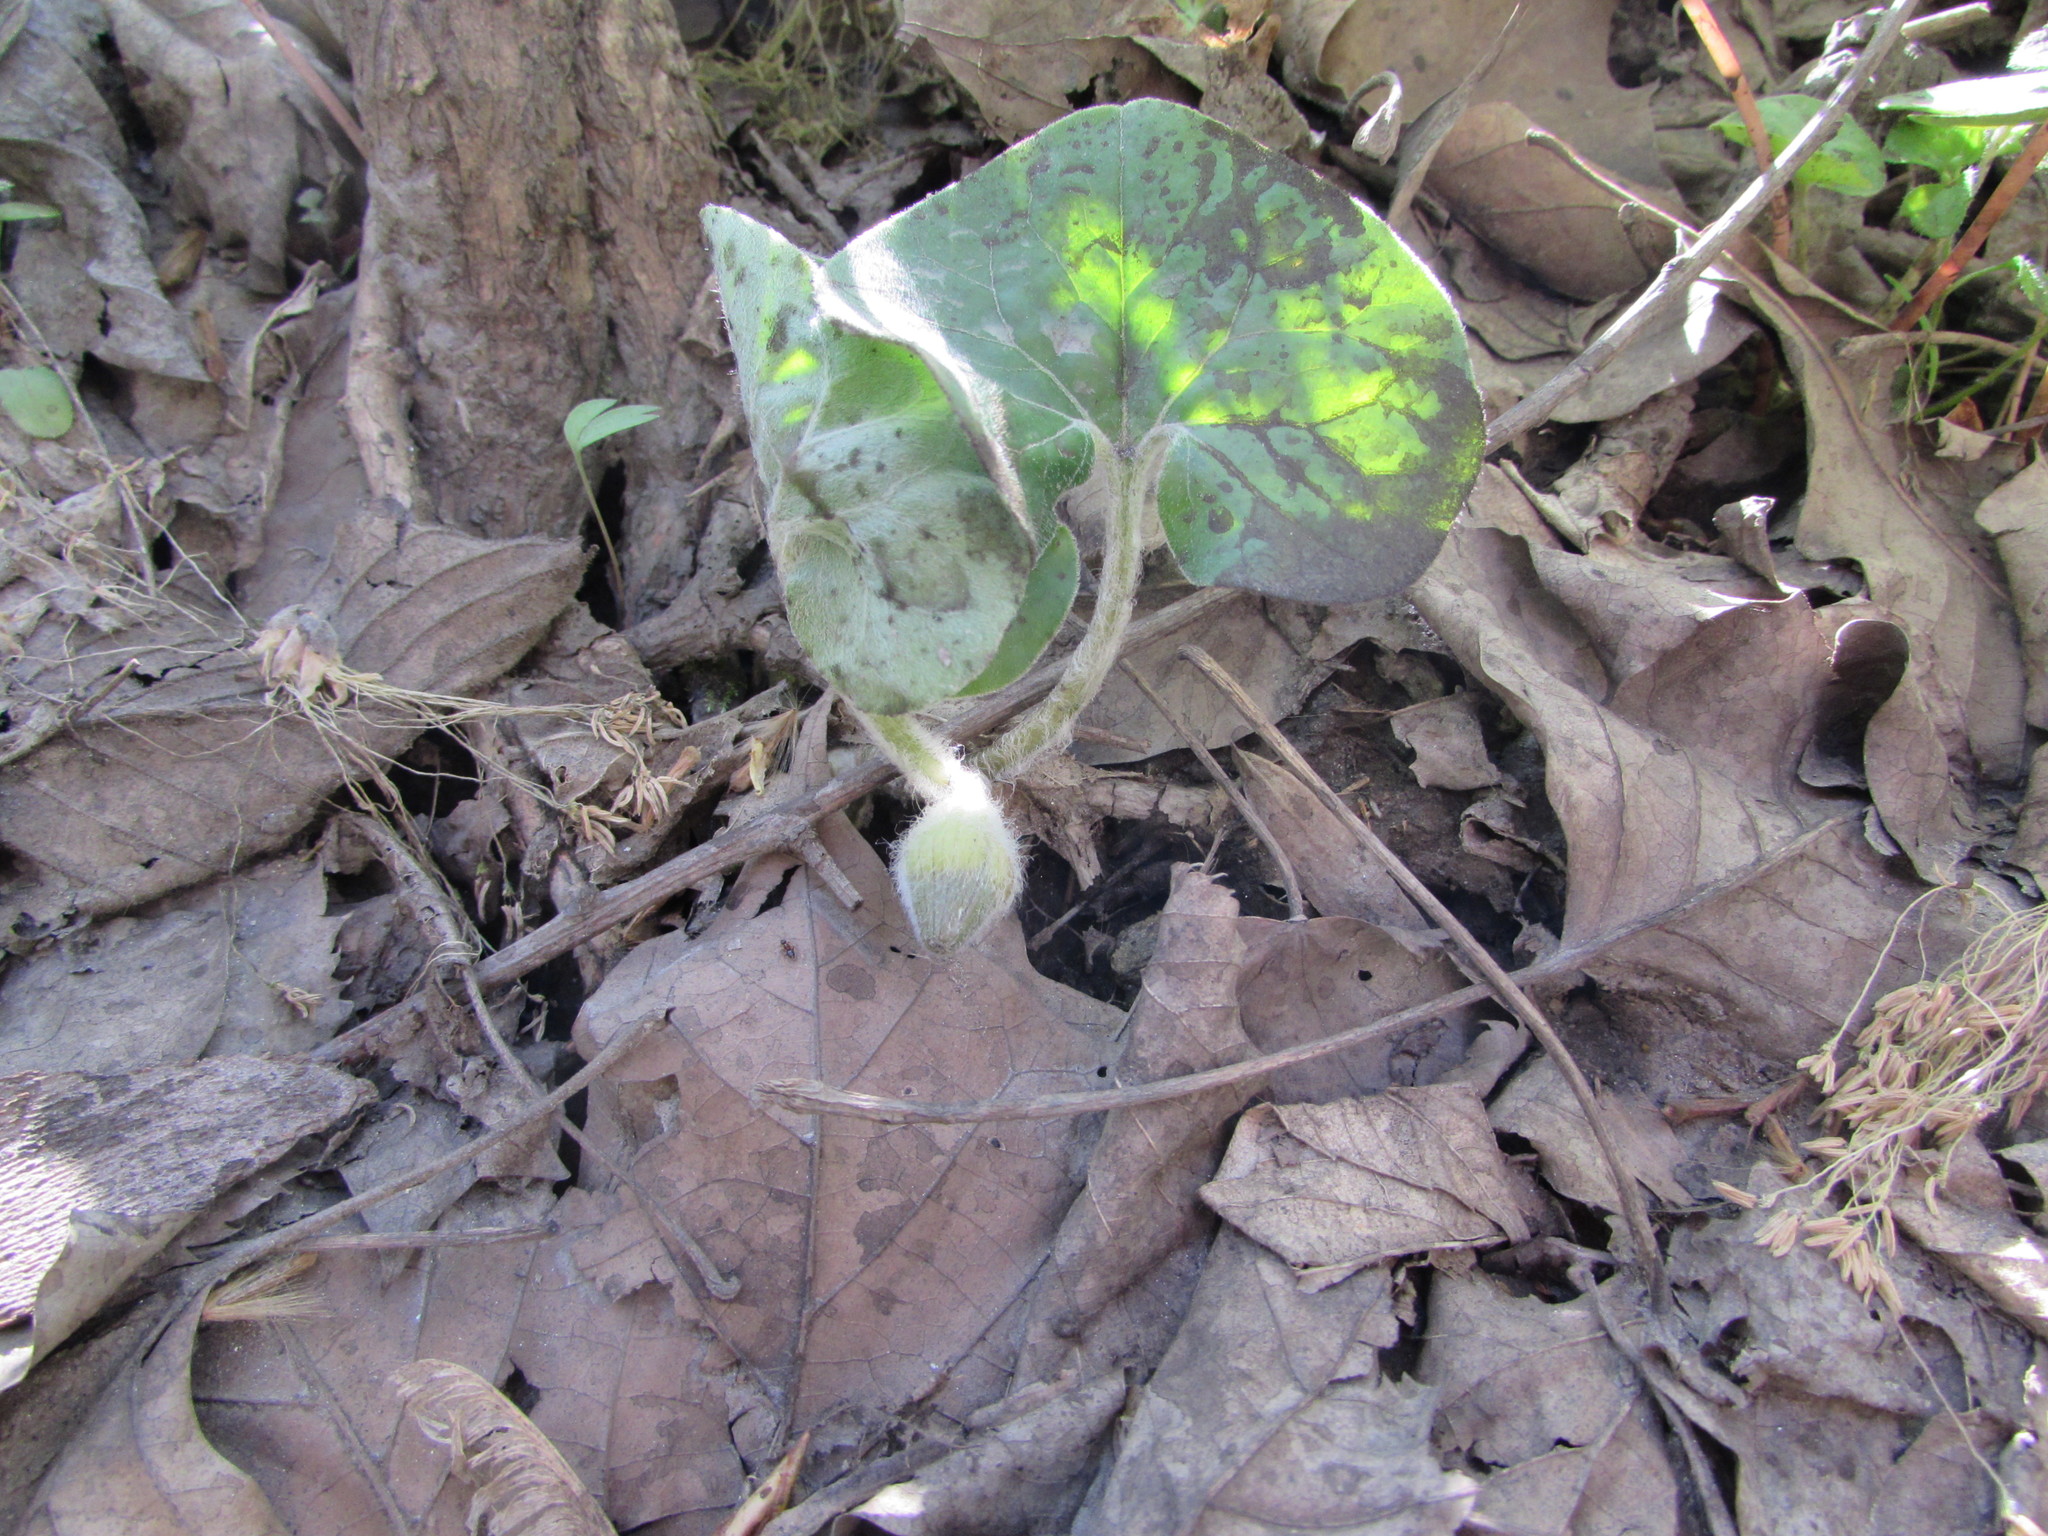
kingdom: Plantae
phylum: Tracheophyta
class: Magnoliopsida
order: Piperales
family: Aristolochiaceae
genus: Asarum
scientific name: Asarum canadense
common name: Wild ginger
